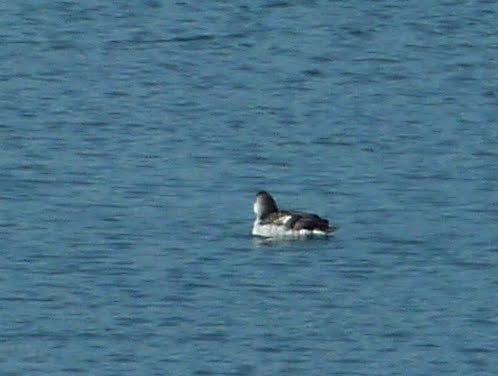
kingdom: Animalia
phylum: Chordata
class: Aves
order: Charadriiformes
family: Alcidae
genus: Cepphus
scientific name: Cepphus columba
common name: Pigeon guillemot
